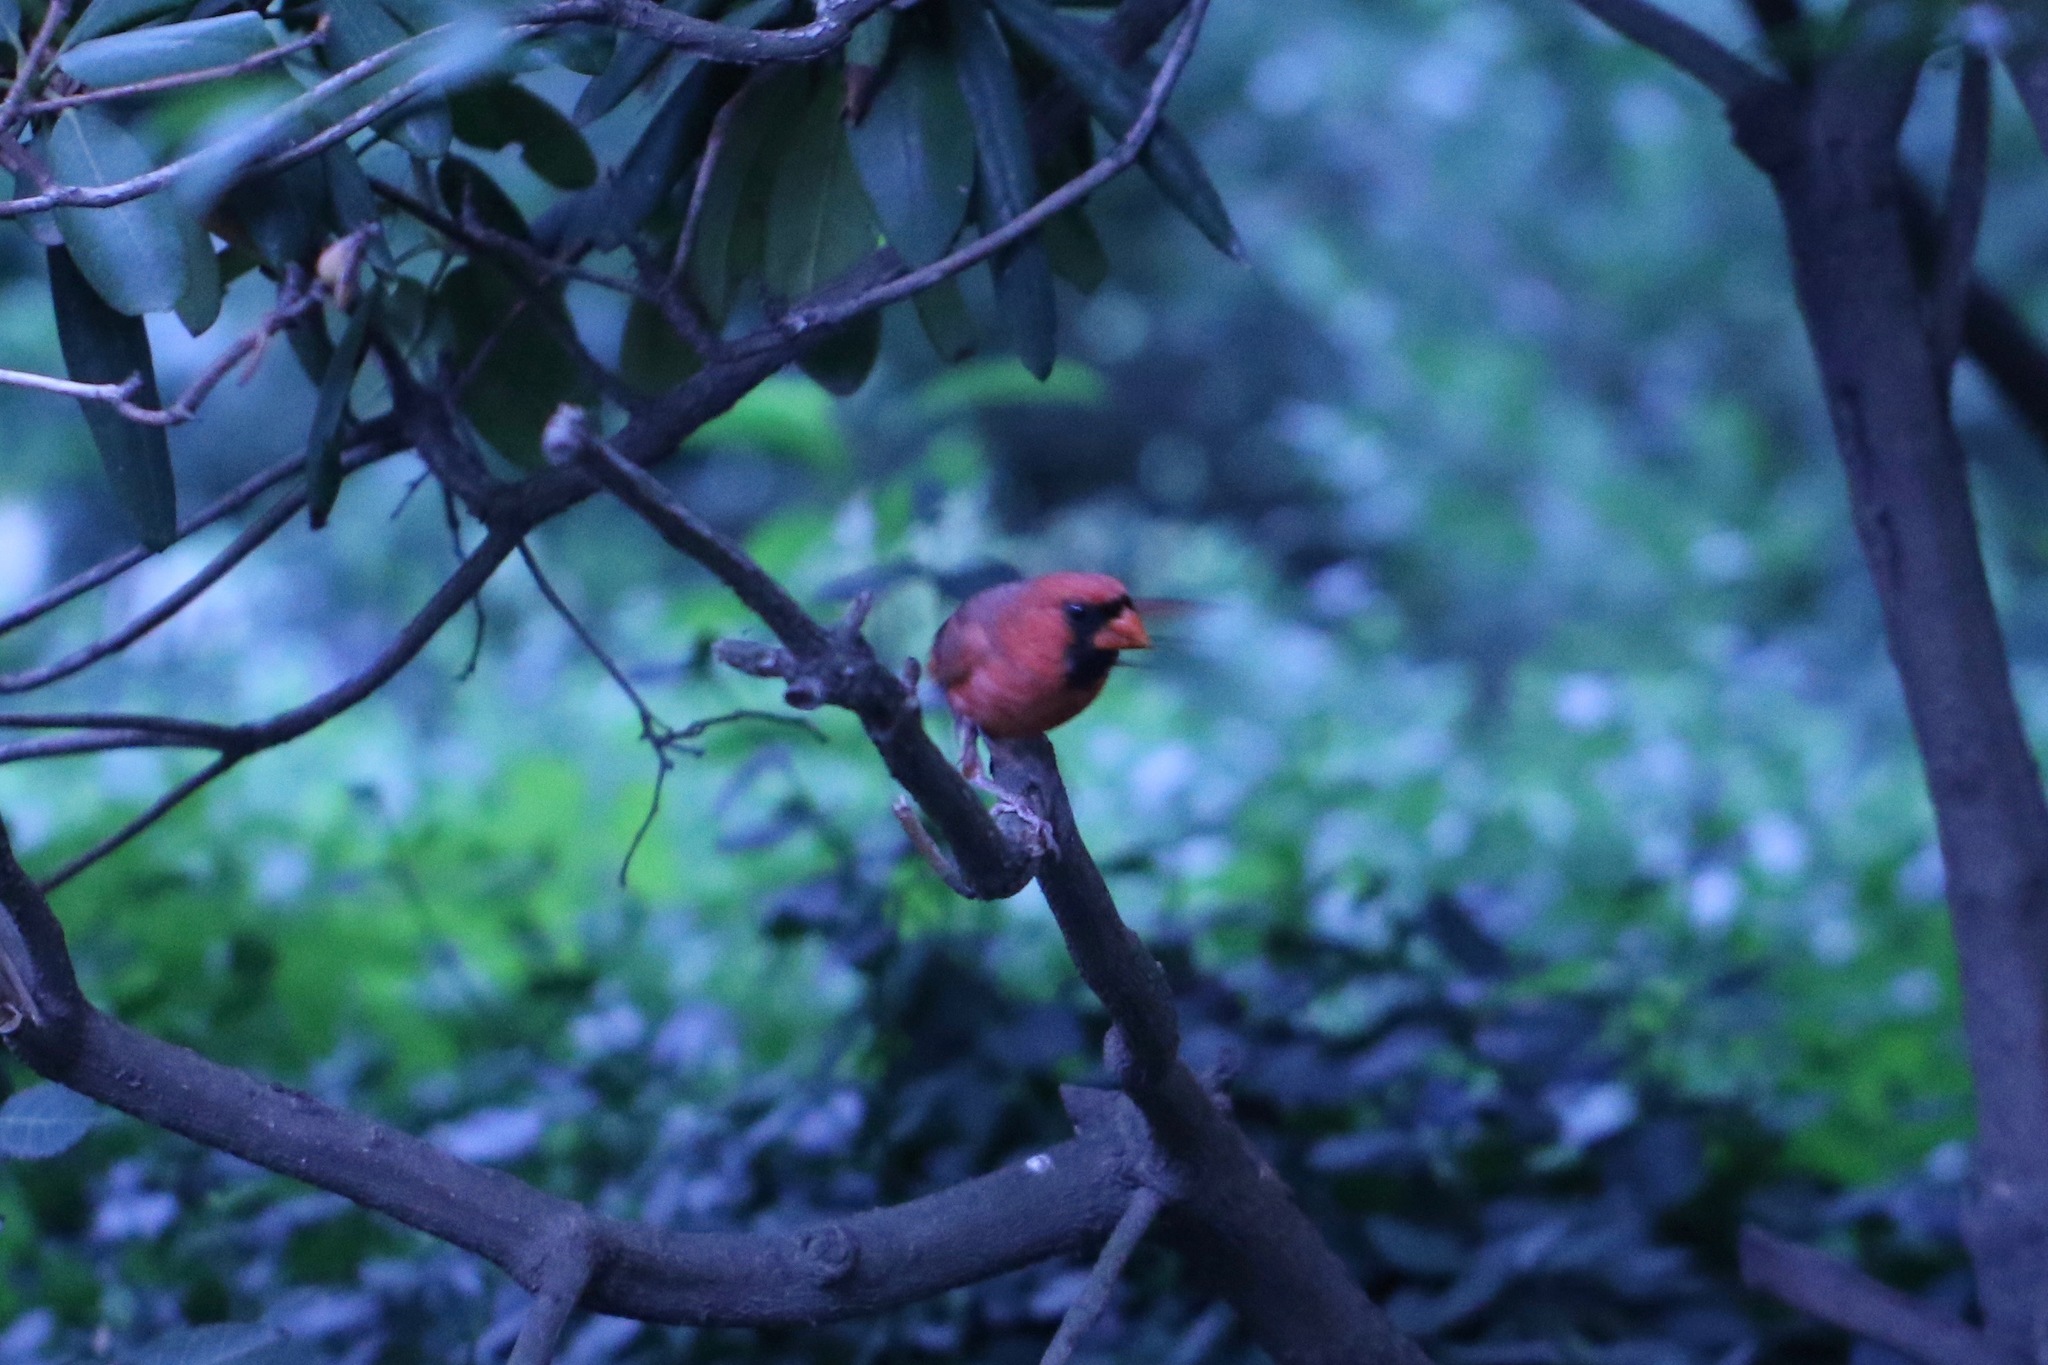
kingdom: Animalia
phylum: Chordata
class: Aves
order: Passeriformes
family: Cardinalidae
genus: Cardinalis
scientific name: Cardinalis cardinalis
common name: Northern cardinal
